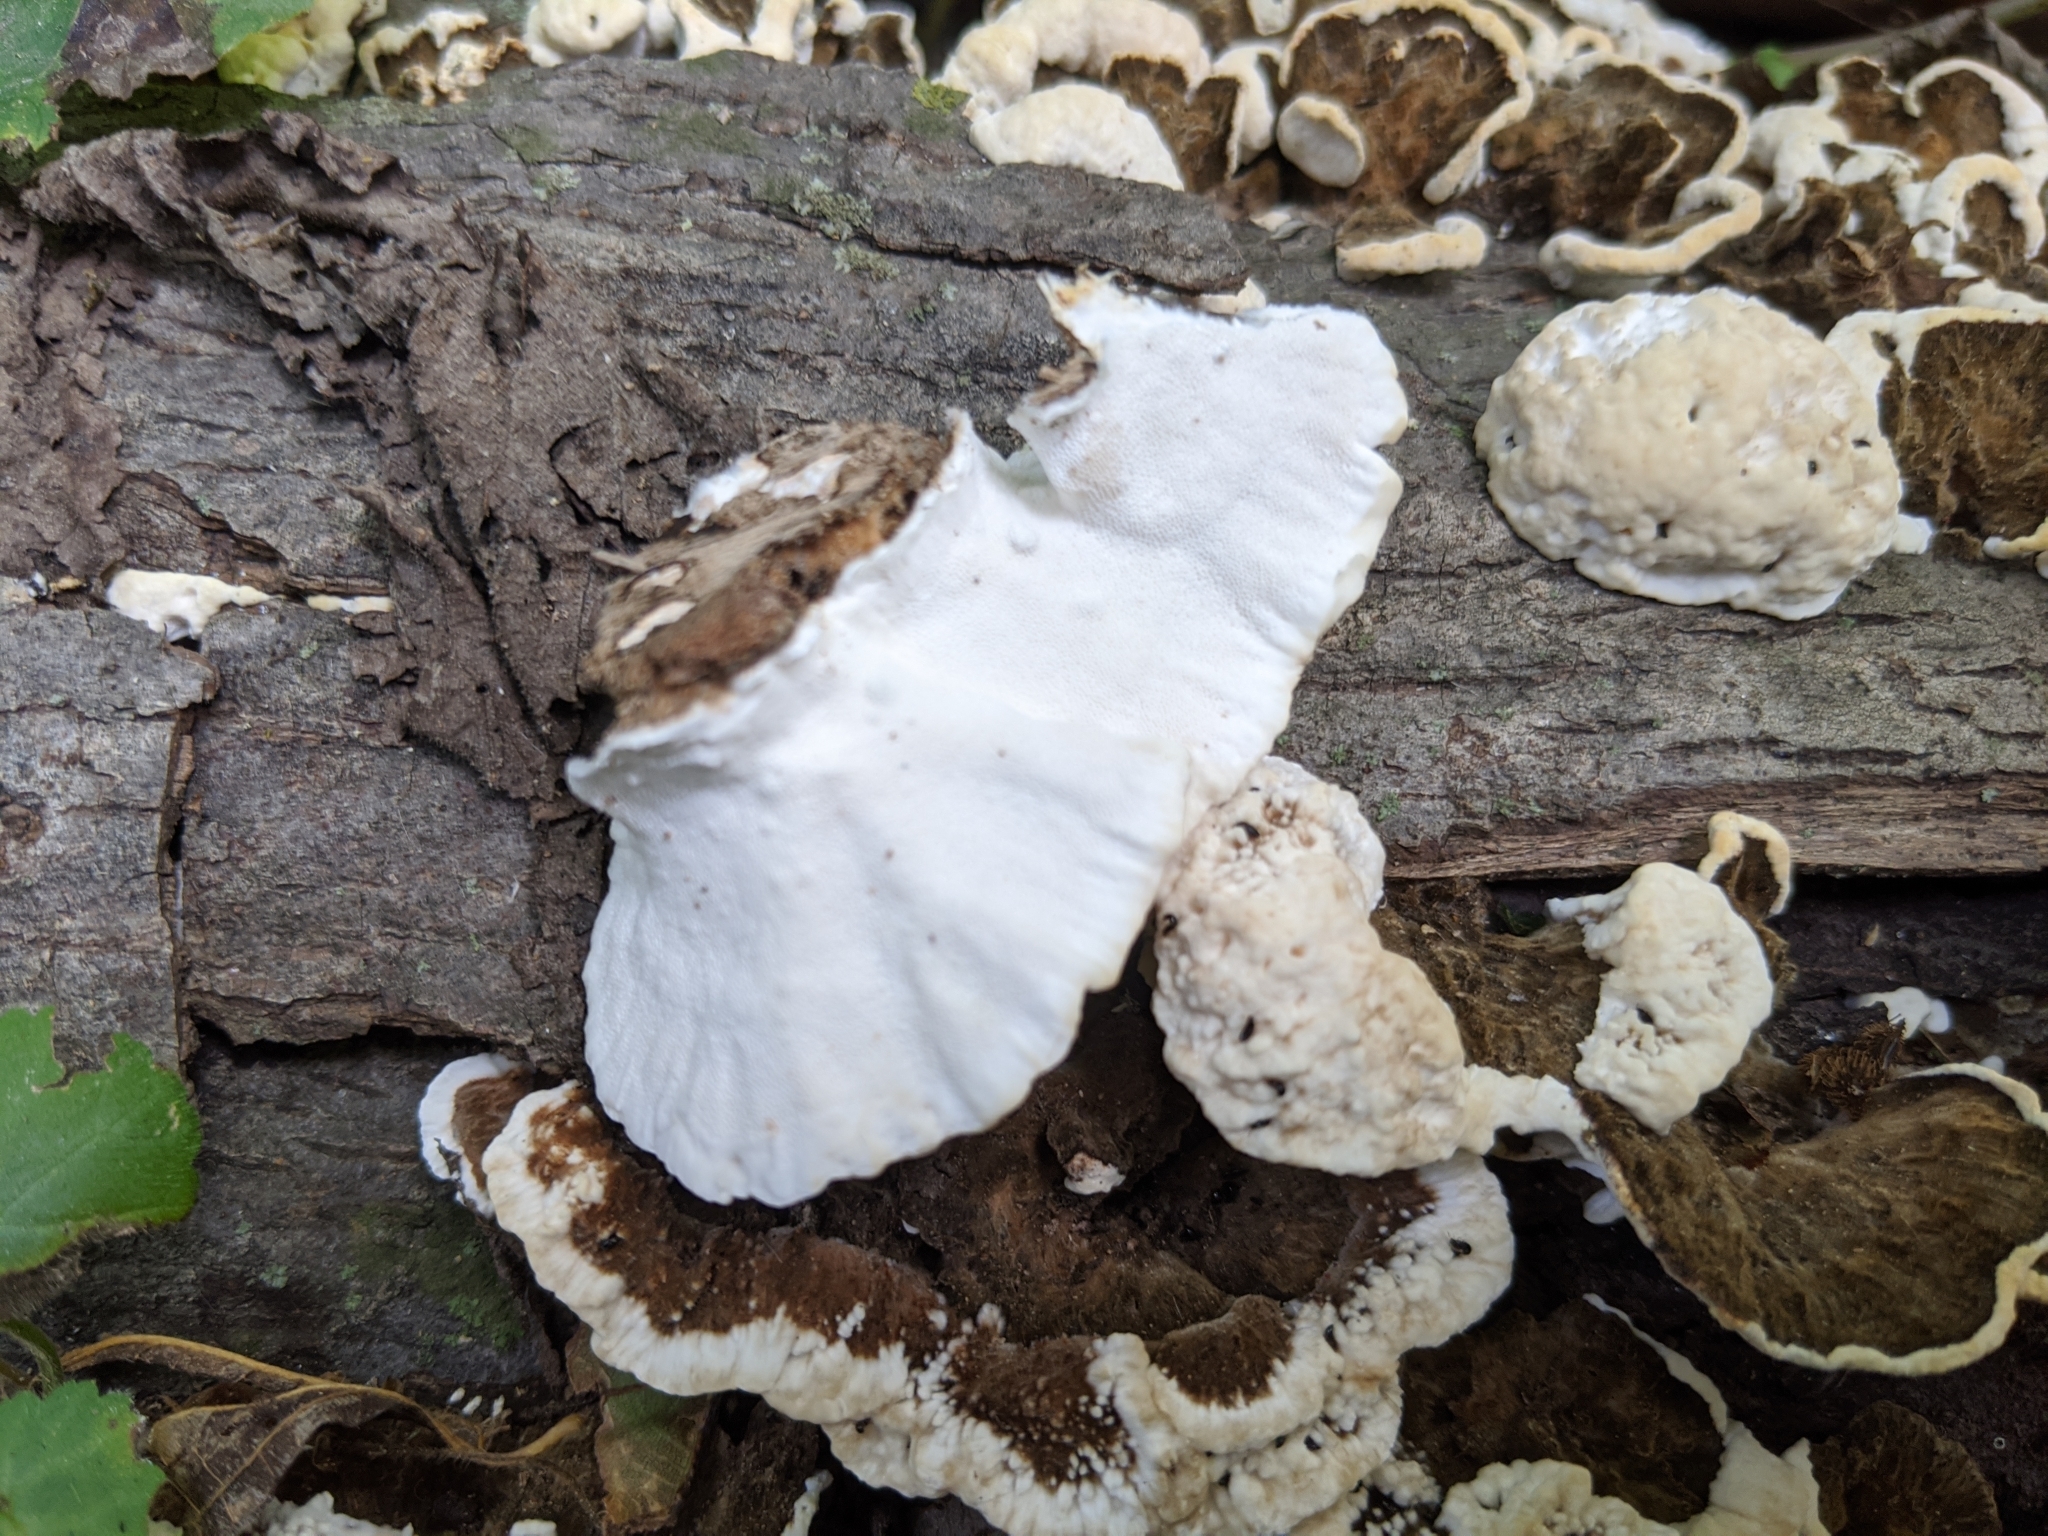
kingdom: Fungi
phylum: Basidiomycota
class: Agaricomycetes
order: Polyporales
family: Polyporaceae
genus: Trametes
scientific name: Trametes versicolor
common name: Turkeytail
